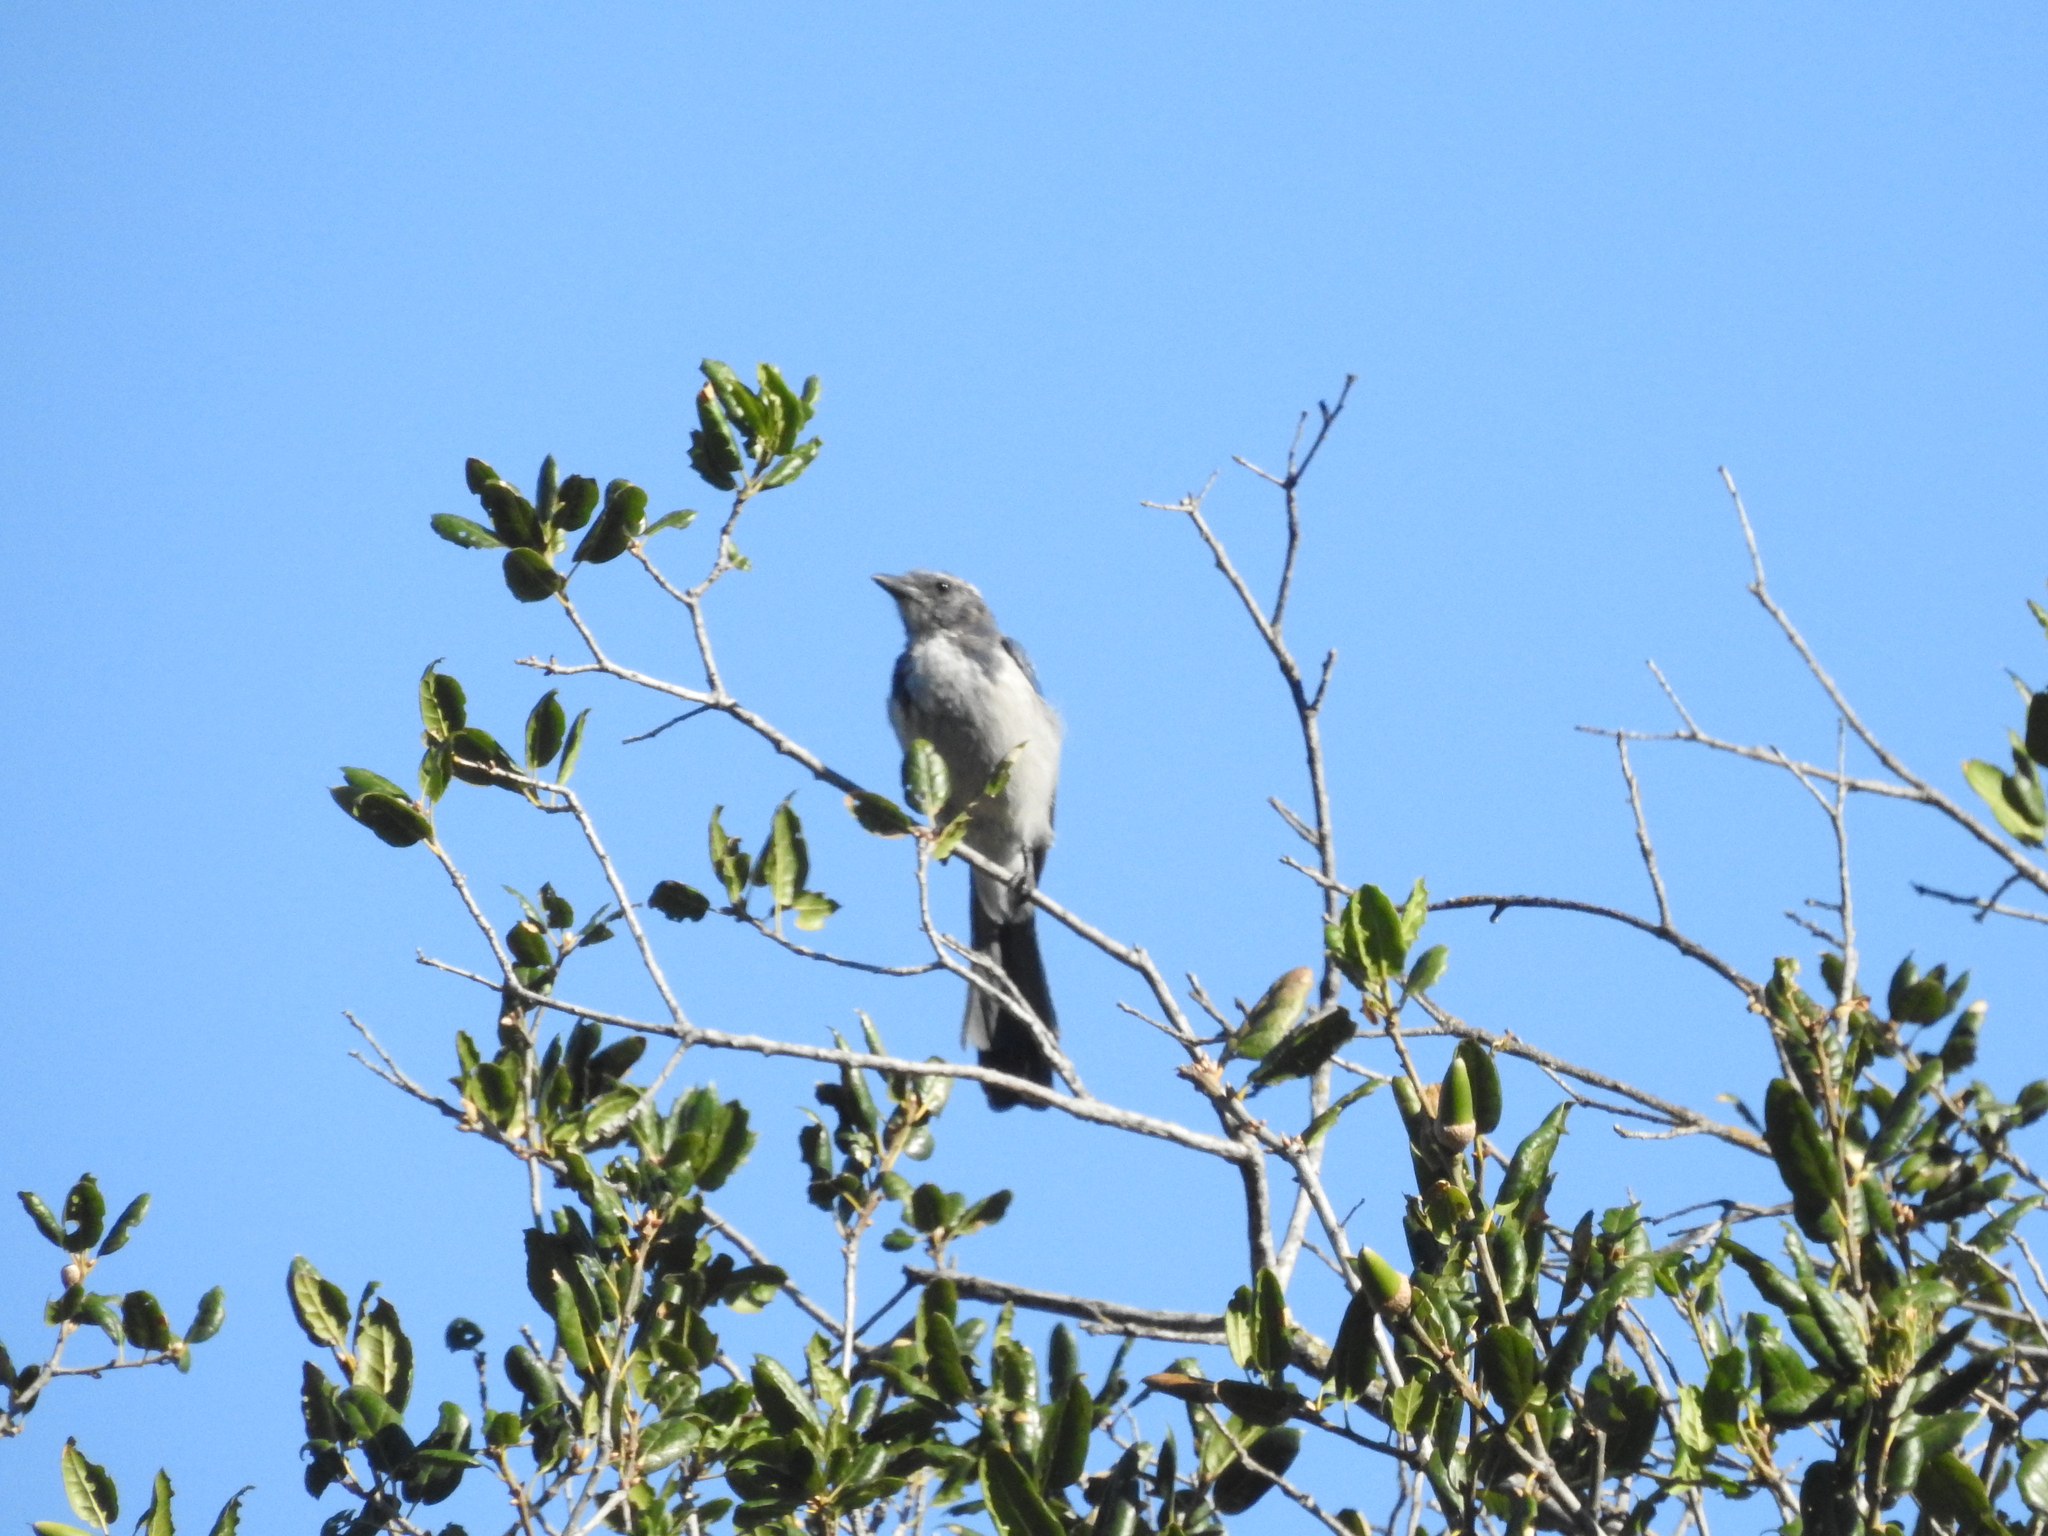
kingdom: Animalia
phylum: Chordata
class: Aves
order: Passeriformes
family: Corvidae
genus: Aphelocoma
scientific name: Aphelocoma californica
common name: California scrub-jay
